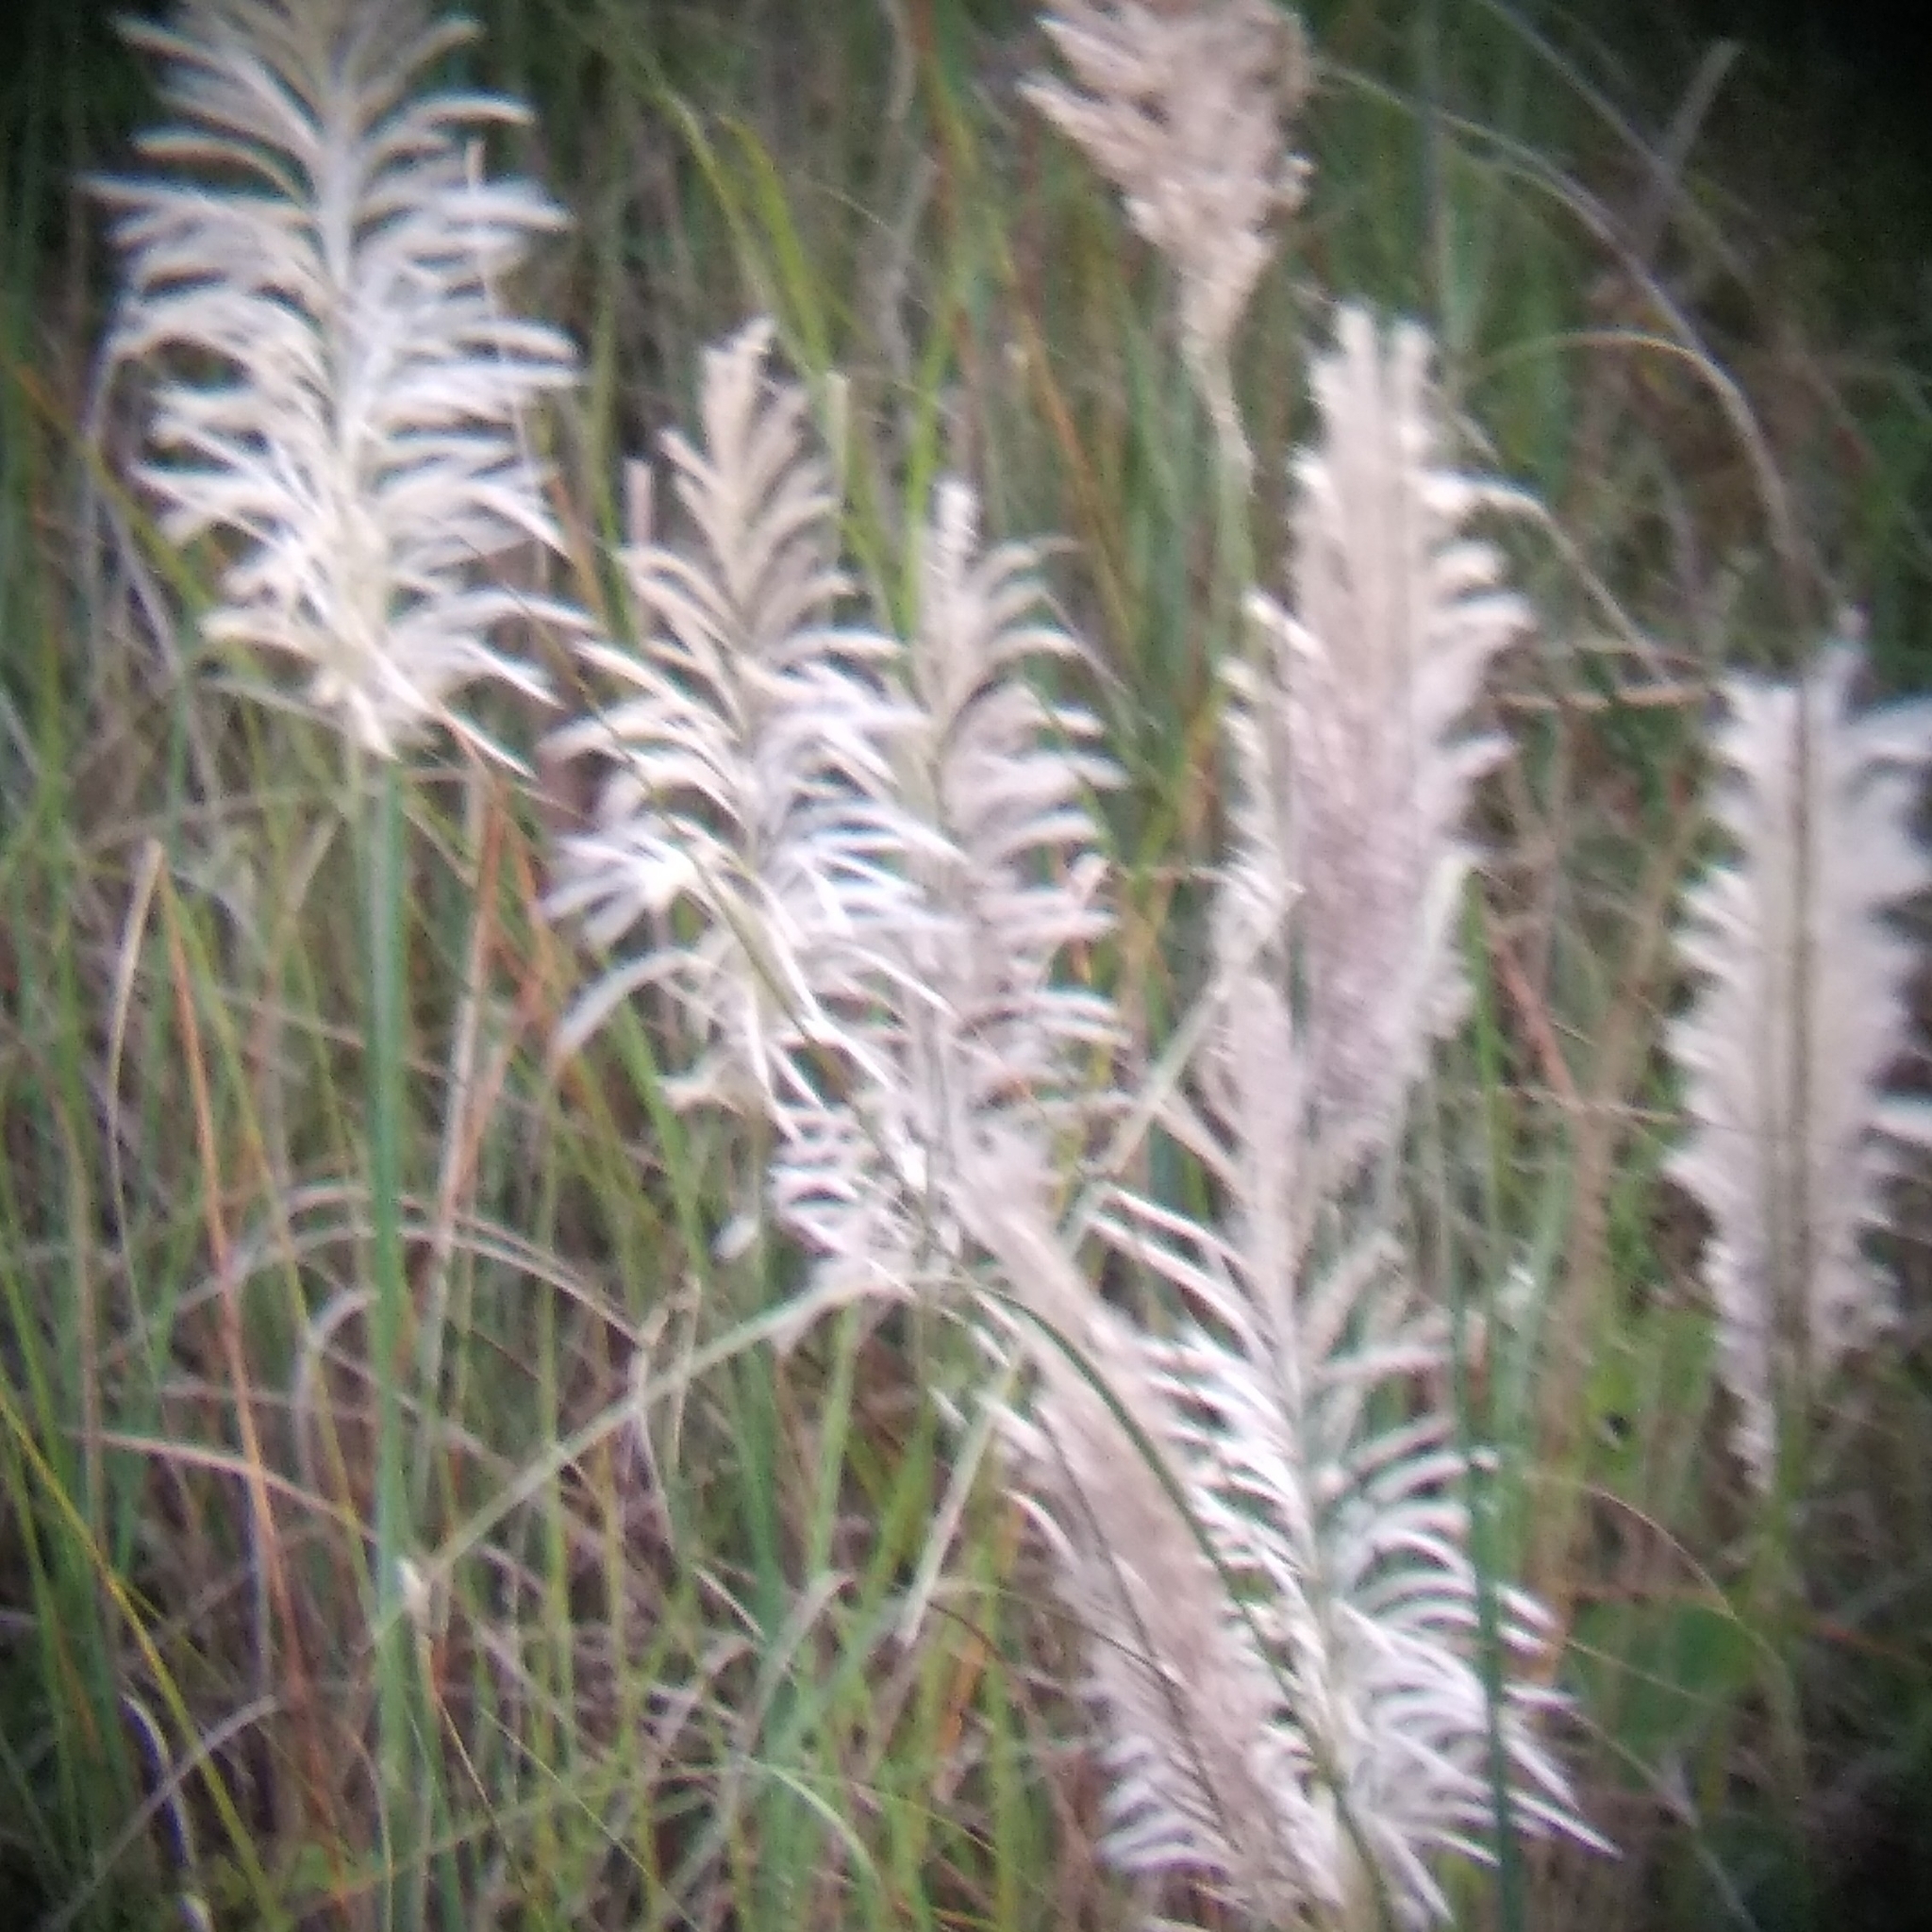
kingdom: Plantae
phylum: Tracheophyta
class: Liliopsida
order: Poales
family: Poaceae
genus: Saccharum
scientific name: Saccharum spontaneum
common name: Wild sugarcane
